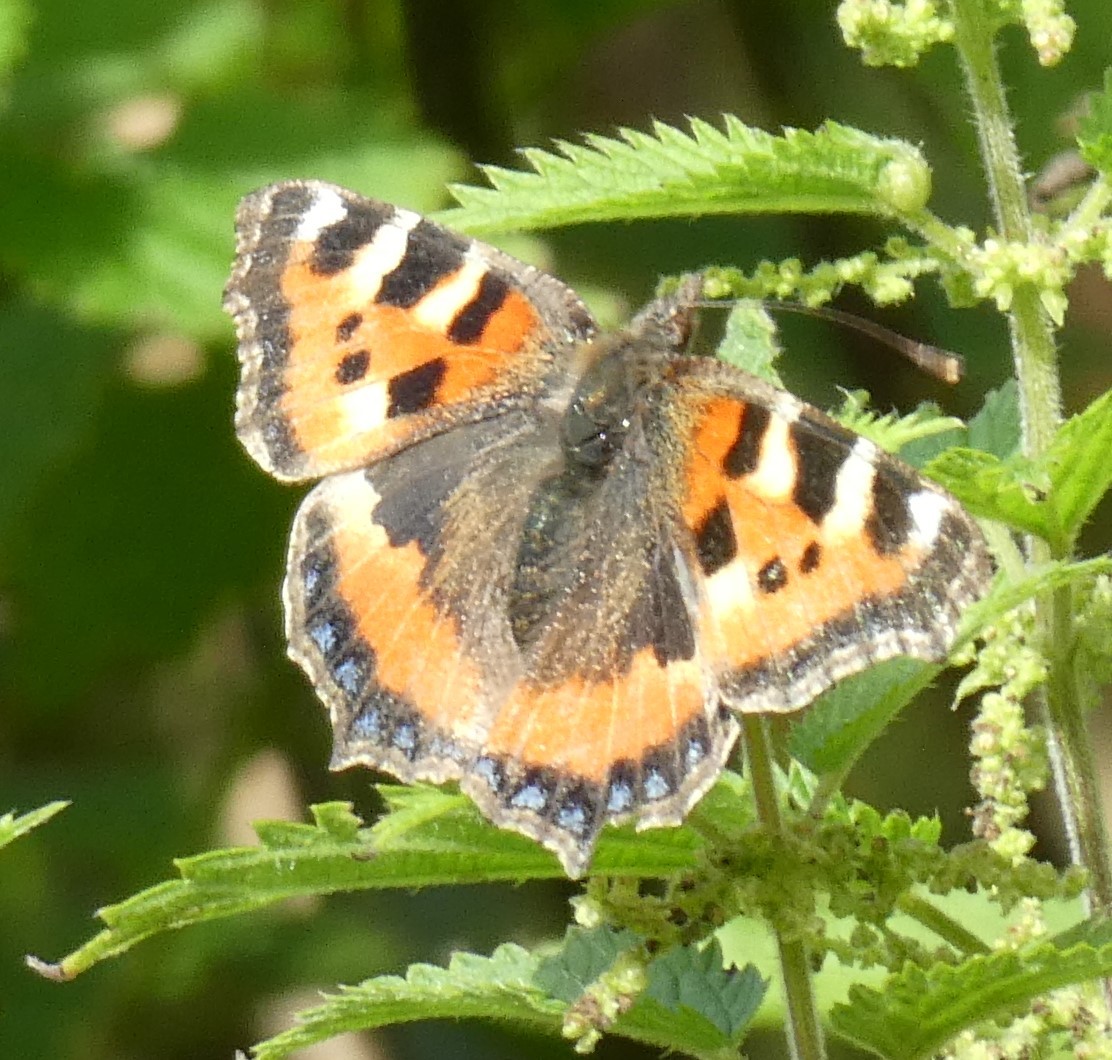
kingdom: Animalia
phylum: Arthropoda
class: Insecta
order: Lepidoptera
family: Nymphalidae
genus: Aglais
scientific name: Aglais urticae
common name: Small tortoiseshell
